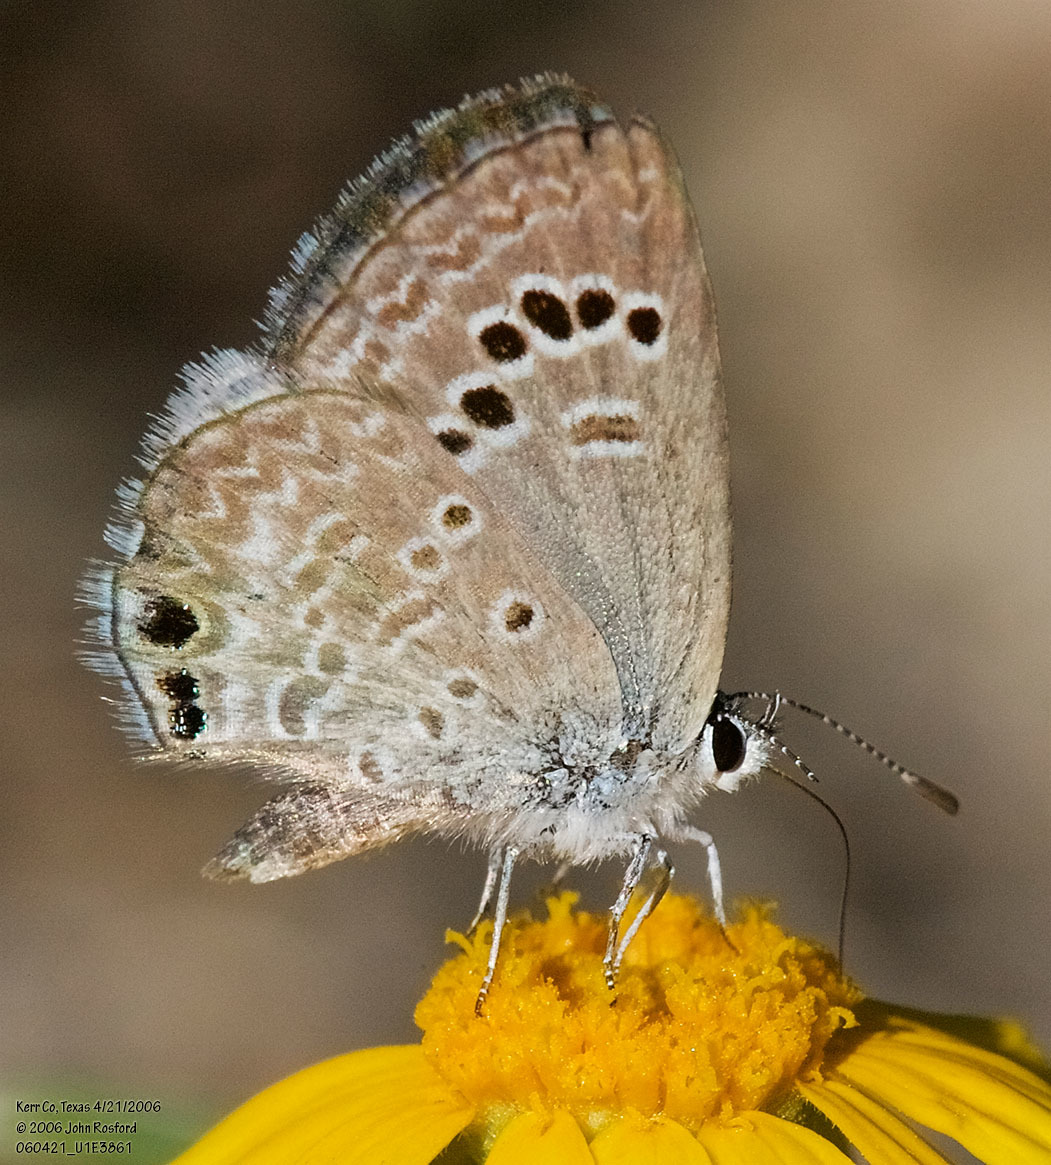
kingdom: Animalia
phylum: Arthropoda
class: Insecta
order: Lepidoptera
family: Lycaenidae
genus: Echinargus
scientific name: Echinargus isola
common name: Reakirt's blue
